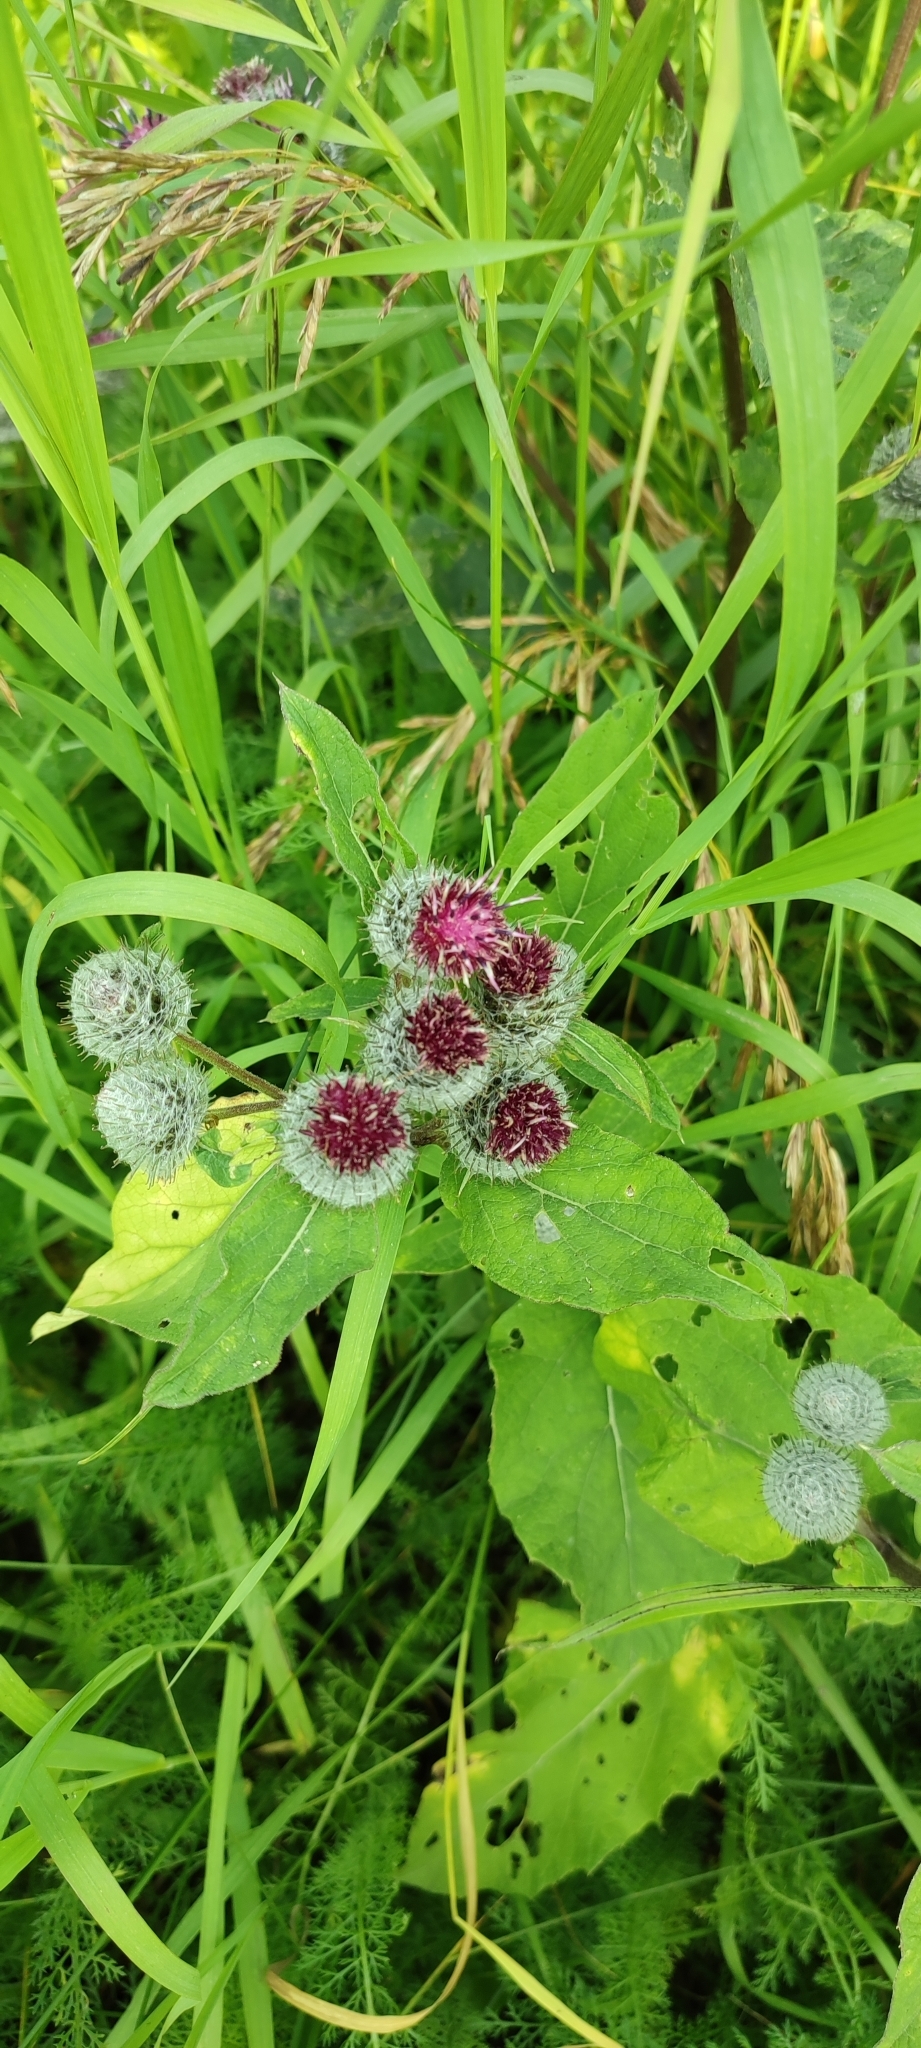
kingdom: Plantae
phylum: Tracheophyta
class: Magnoliopsida
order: Asterales
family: Asteraceae
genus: Arctium
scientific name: Arctium tomentosum
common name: Woolly burdock
